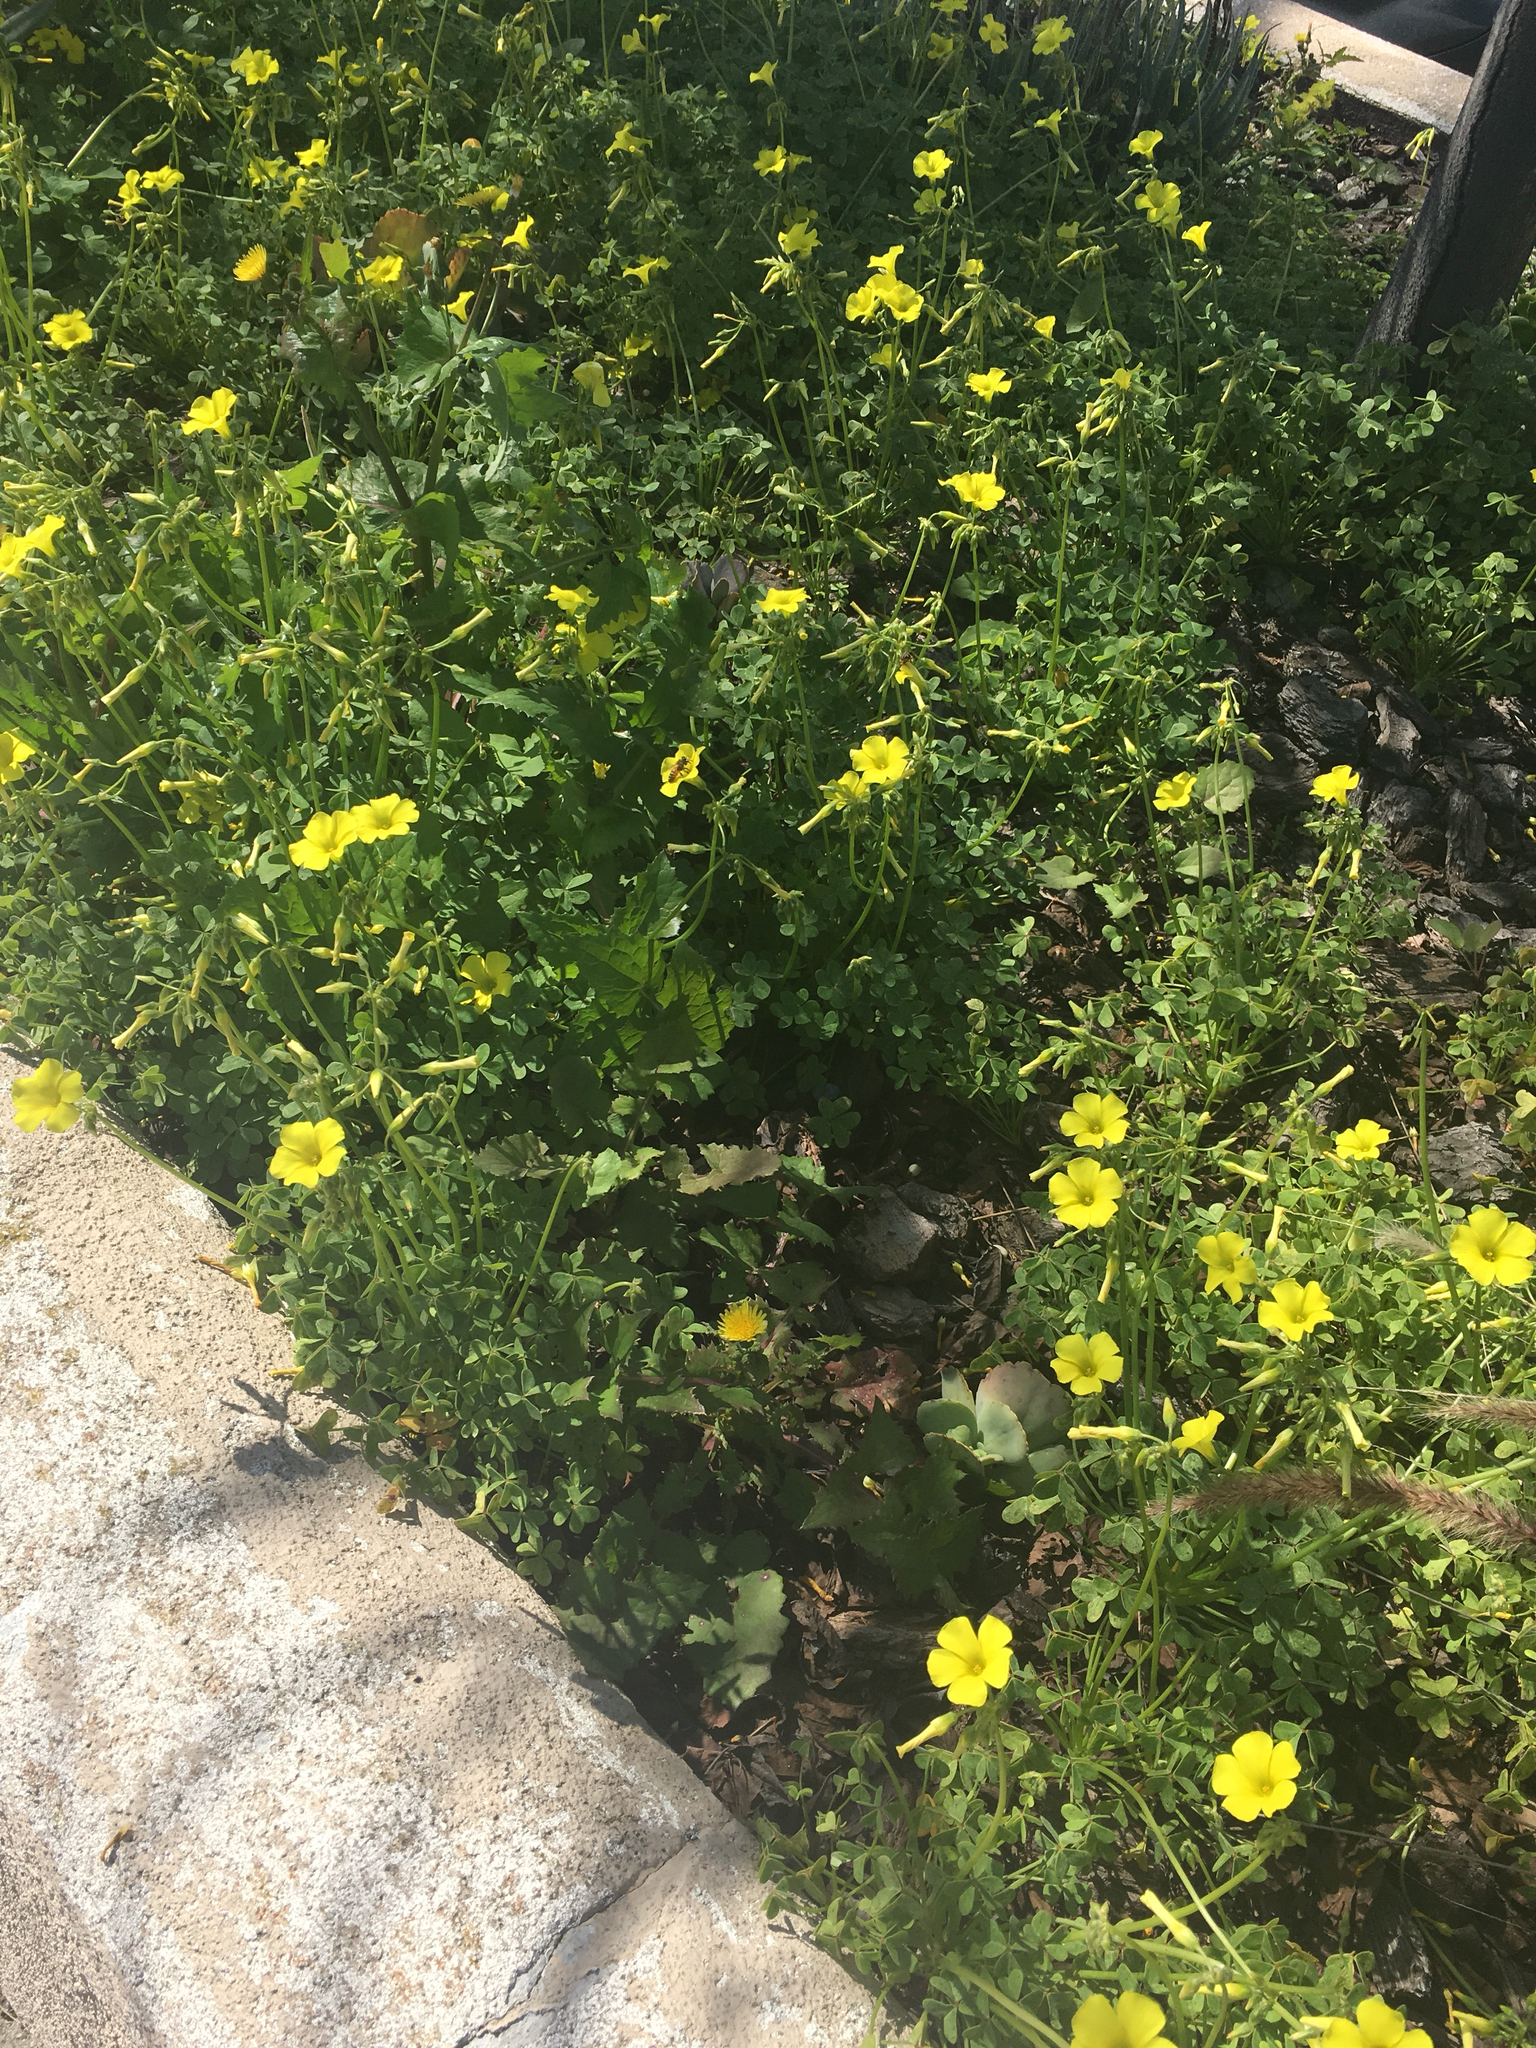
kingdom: Plantae
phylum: Tracheophyta
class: Magnoliopsida
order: Oxalidales
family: Oxalidaceae
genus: Oxalis
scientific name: Oxalis pes-caprae
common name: Bermuda-buttercup
